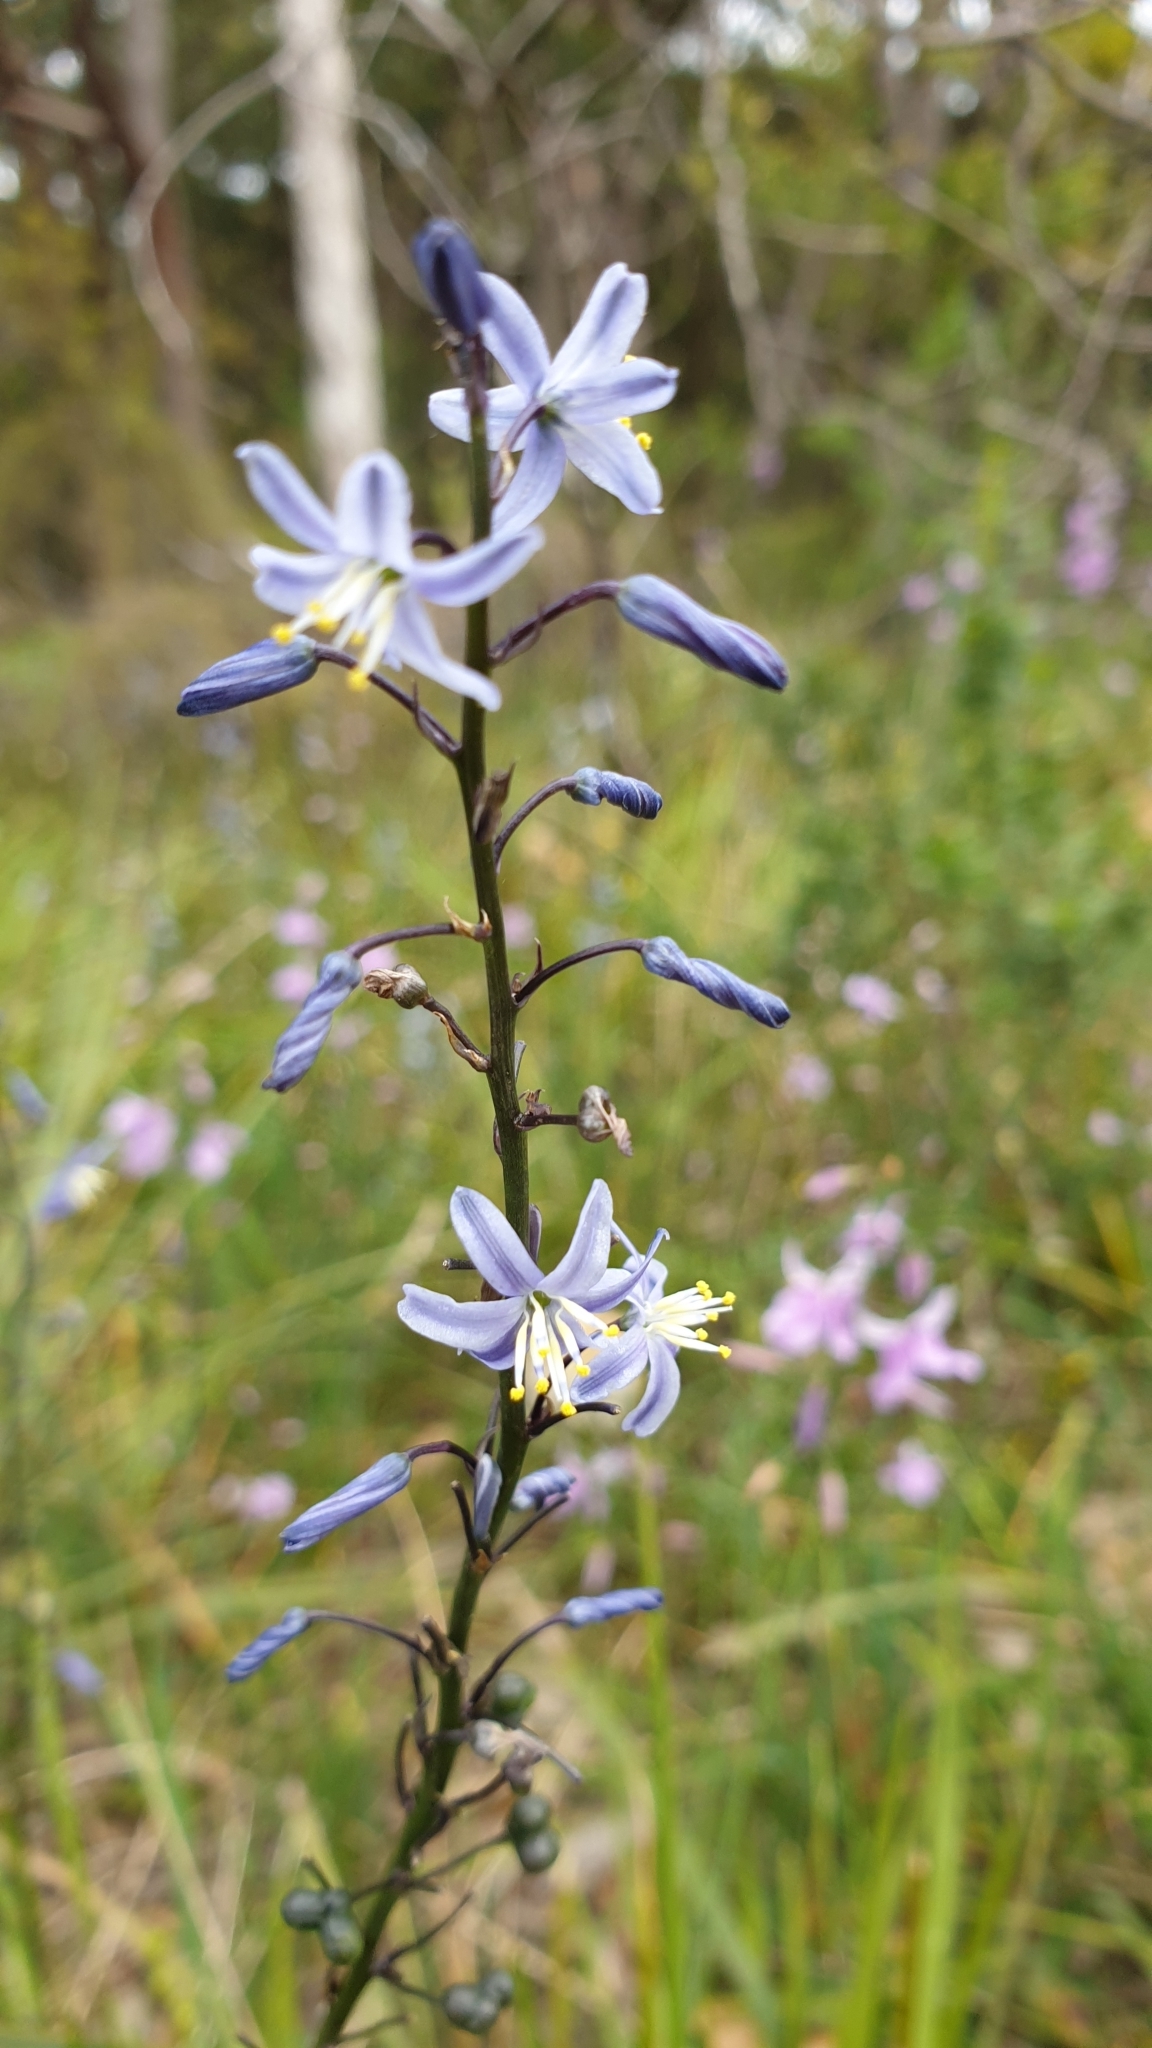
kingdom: Plantae
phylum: Tracheophyta
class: Liliopsida
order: Asparagales
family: Asphodelaceae
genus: Caesia
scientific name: Caesia calliantha
